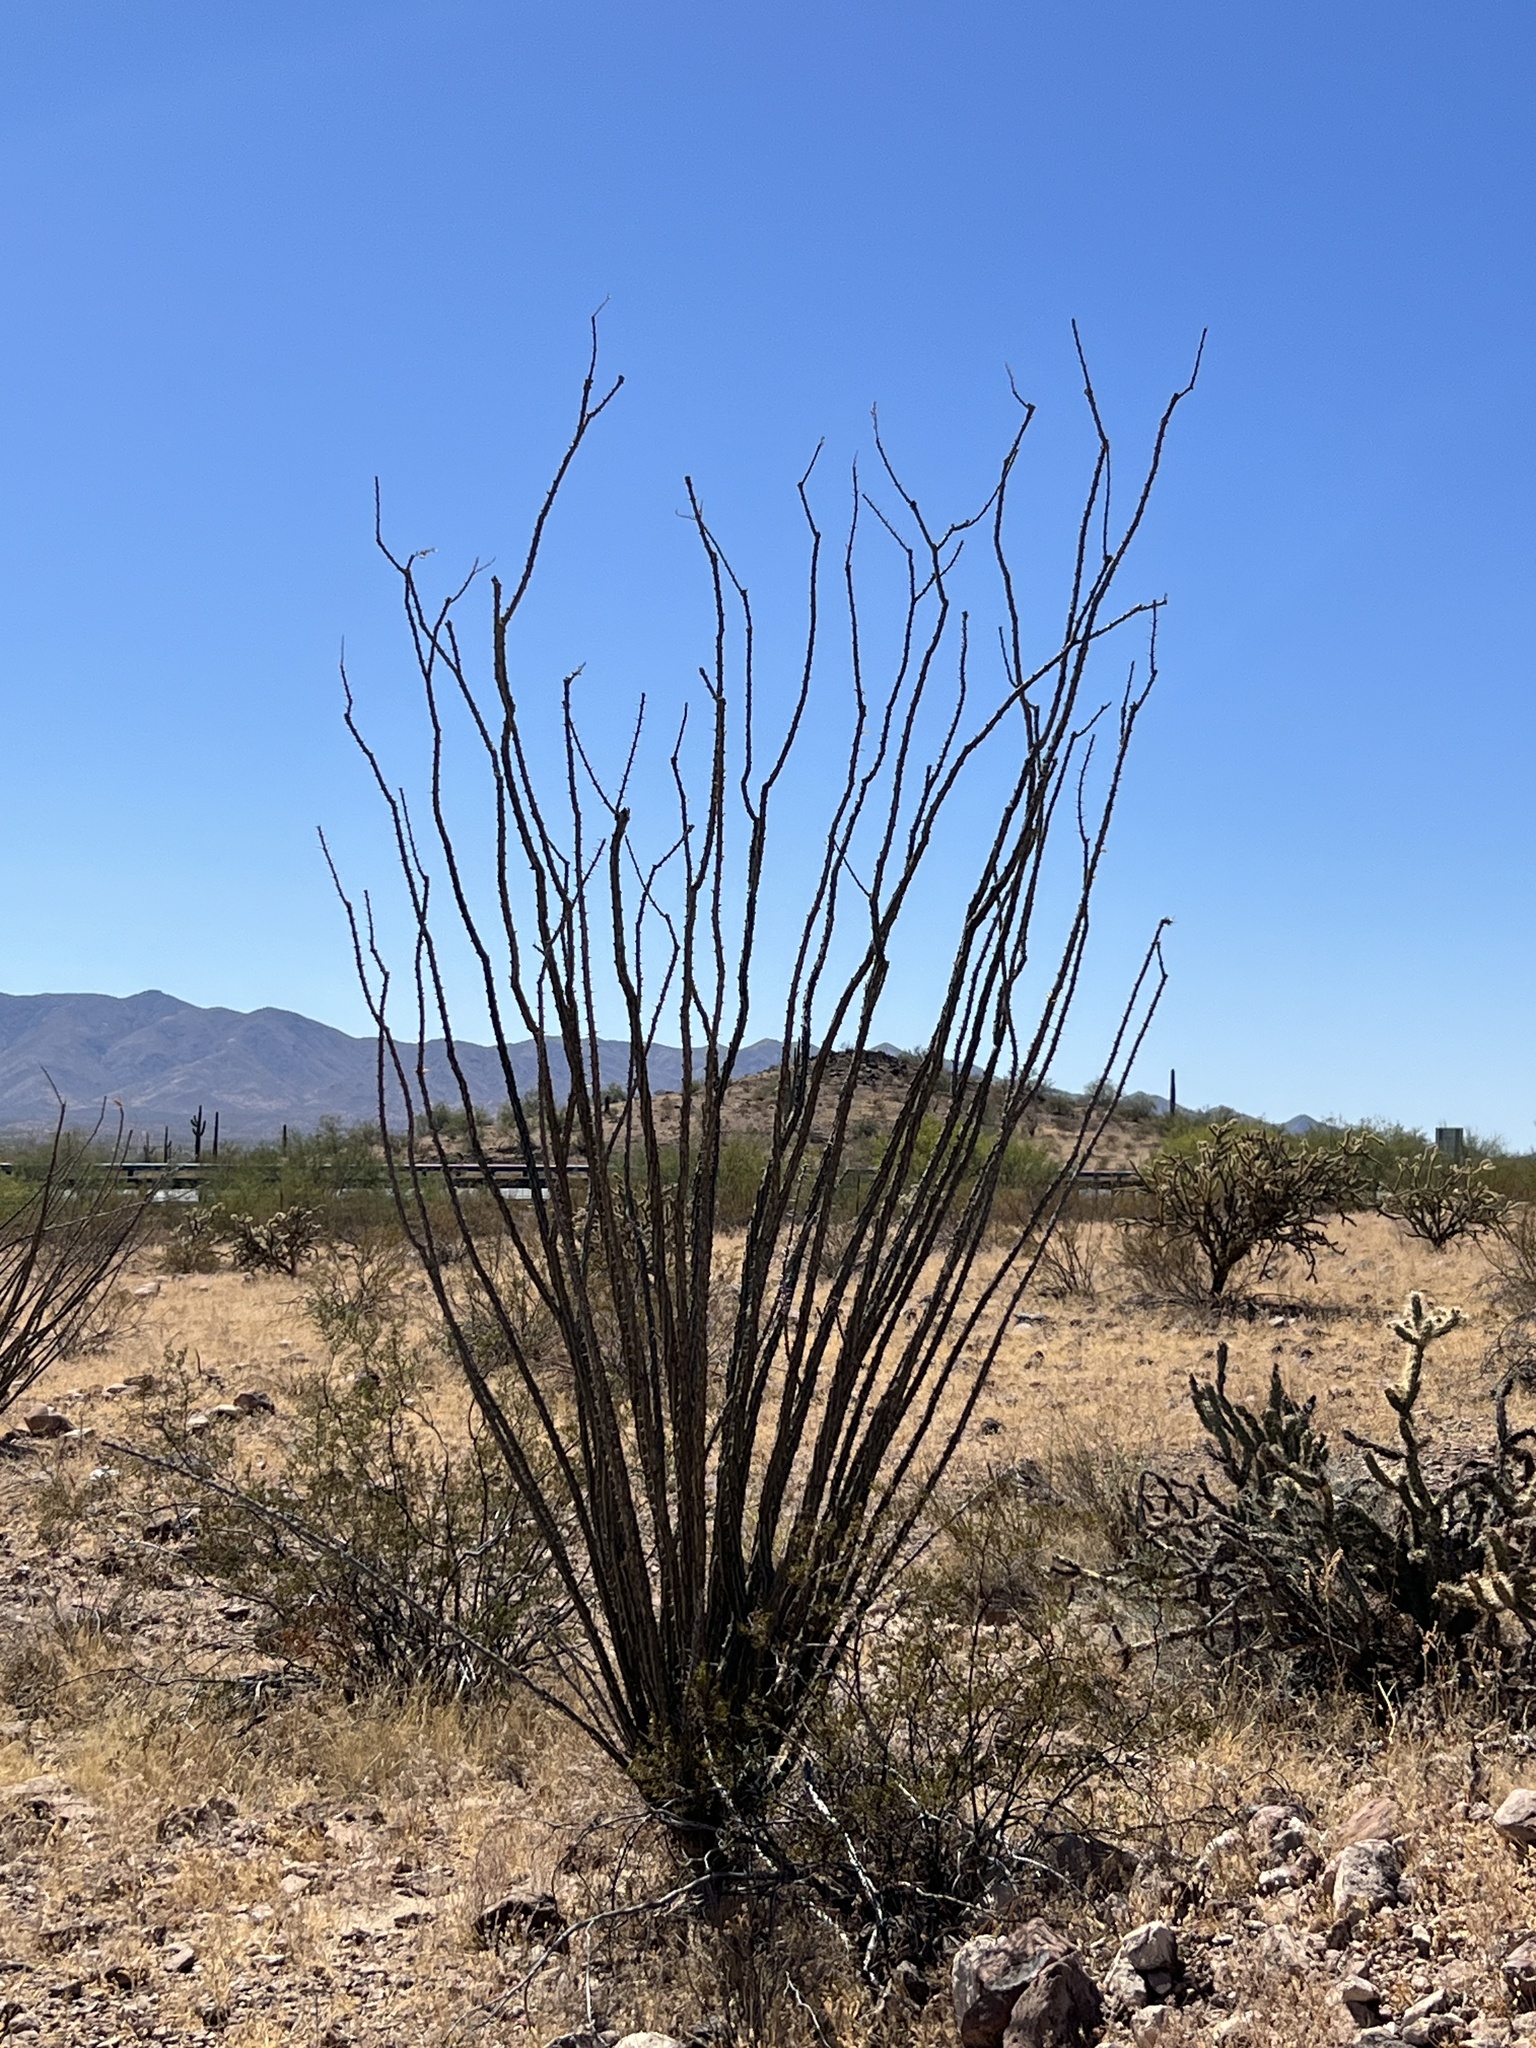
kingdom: Plantae
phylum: Tracheophyta
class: Magnoliopsida
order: Ericales
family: Fouquieriaceae
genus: Fouquieria
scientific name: Fouquieria splendens
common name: Vine-cactus
